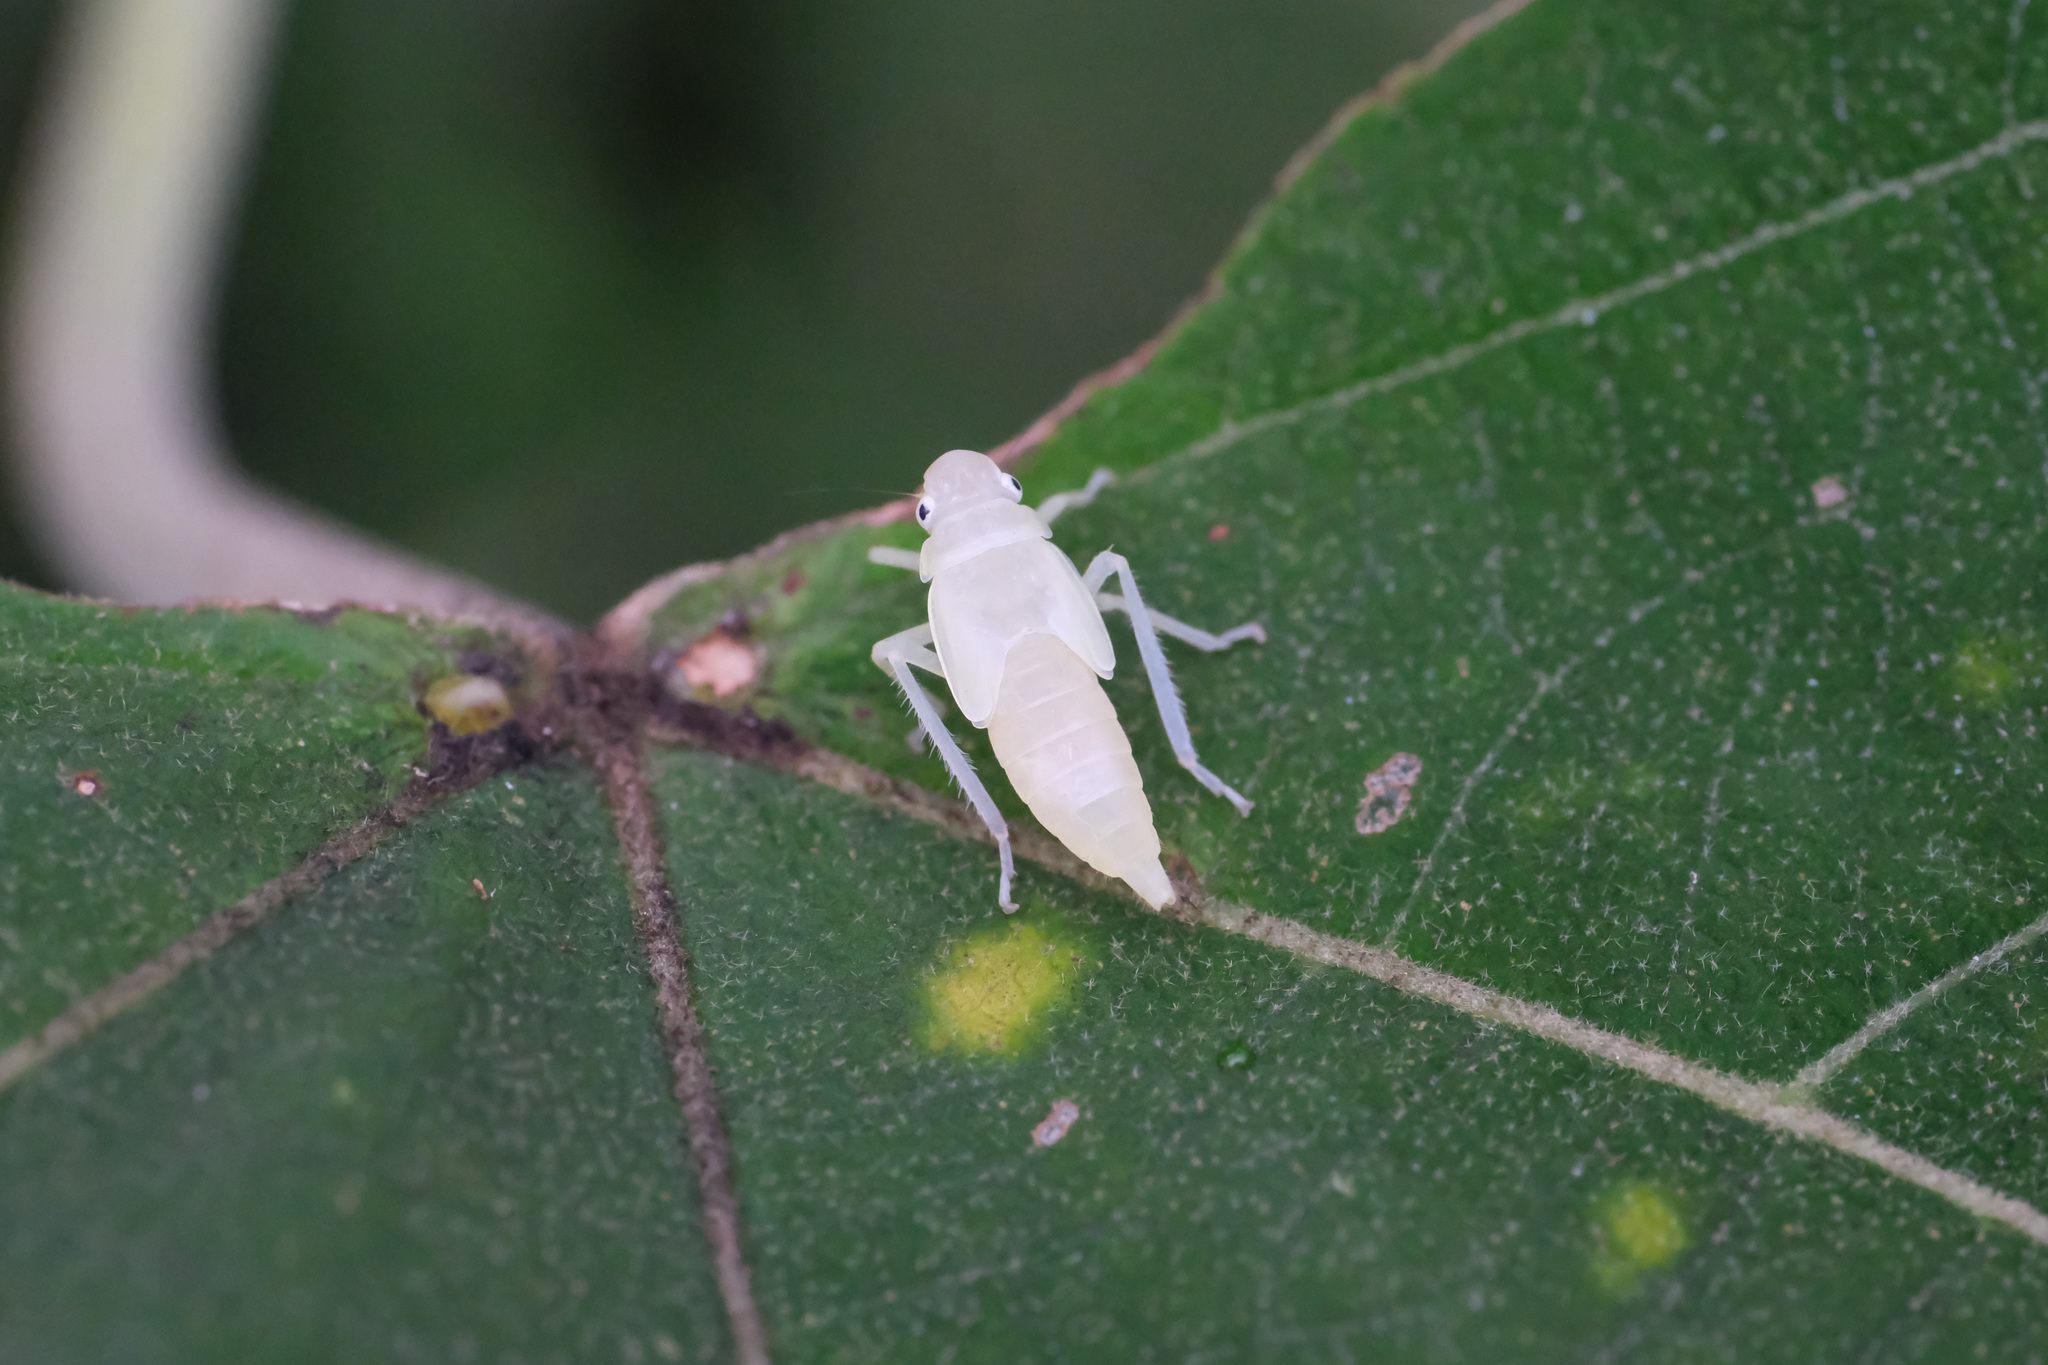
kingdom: Animalia
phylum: Arthropoda
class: Insecta
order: Hemiptera
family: Cicadellidae
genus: Bothrogonia
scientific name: Bothrogonia ferruginea
